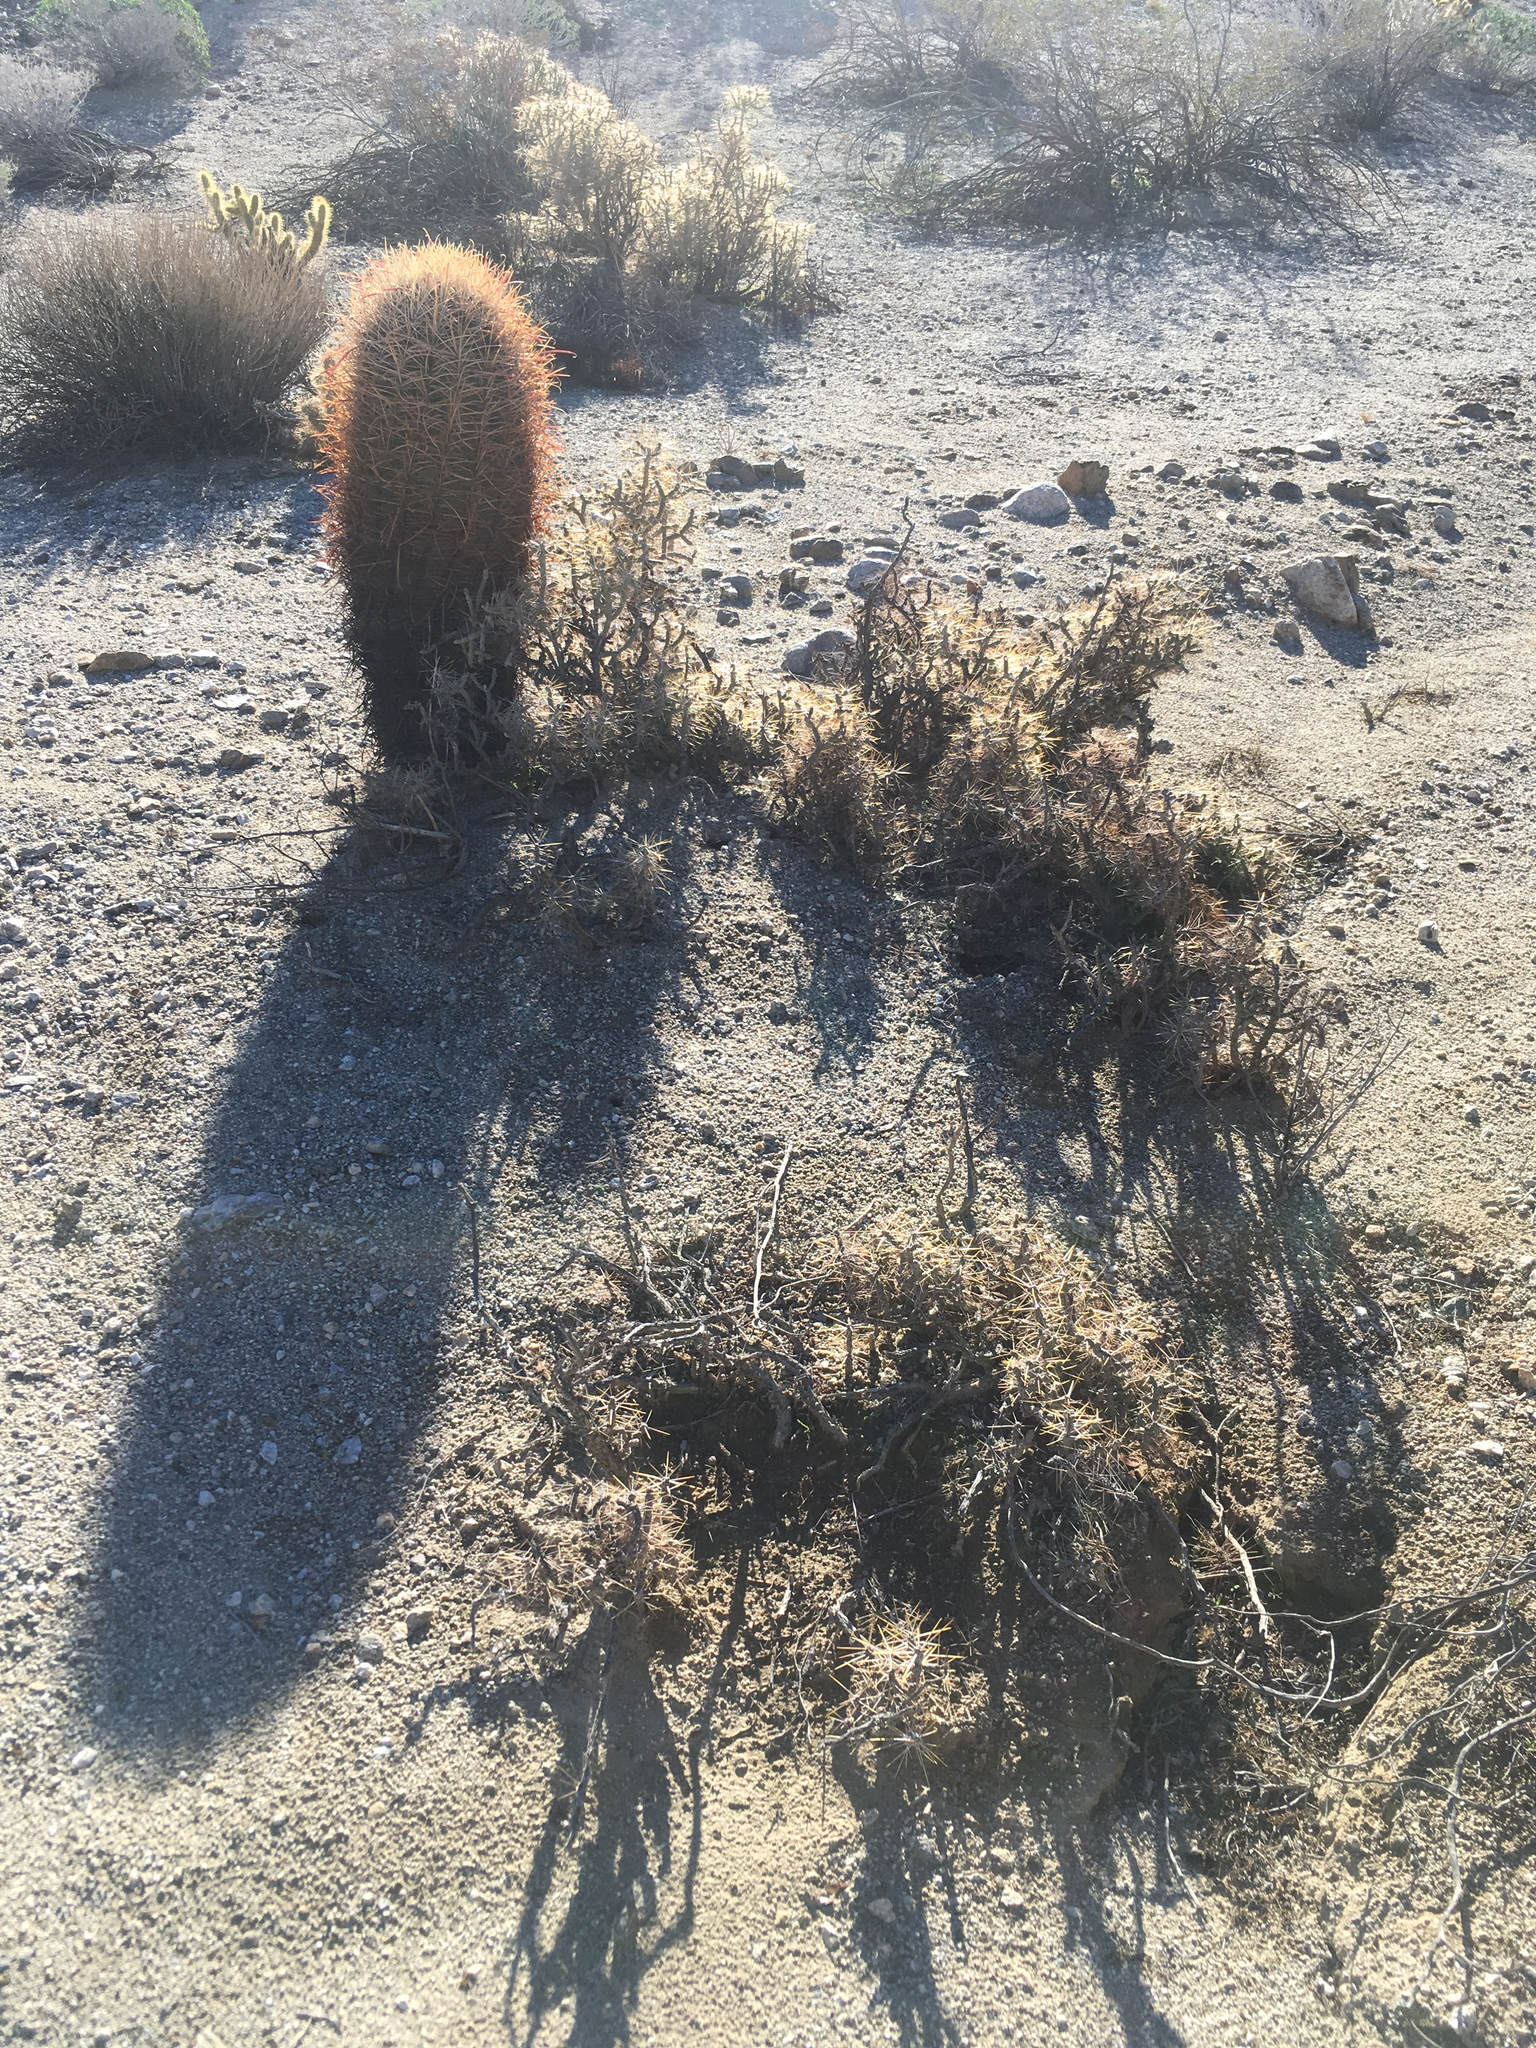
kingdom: Plantae
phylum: Tracheophyta
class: Magnoliopsida
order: Caryophyllales
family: Cactaceae
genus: Cylindropuntia
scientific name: Cylindropuntia ramosissima
